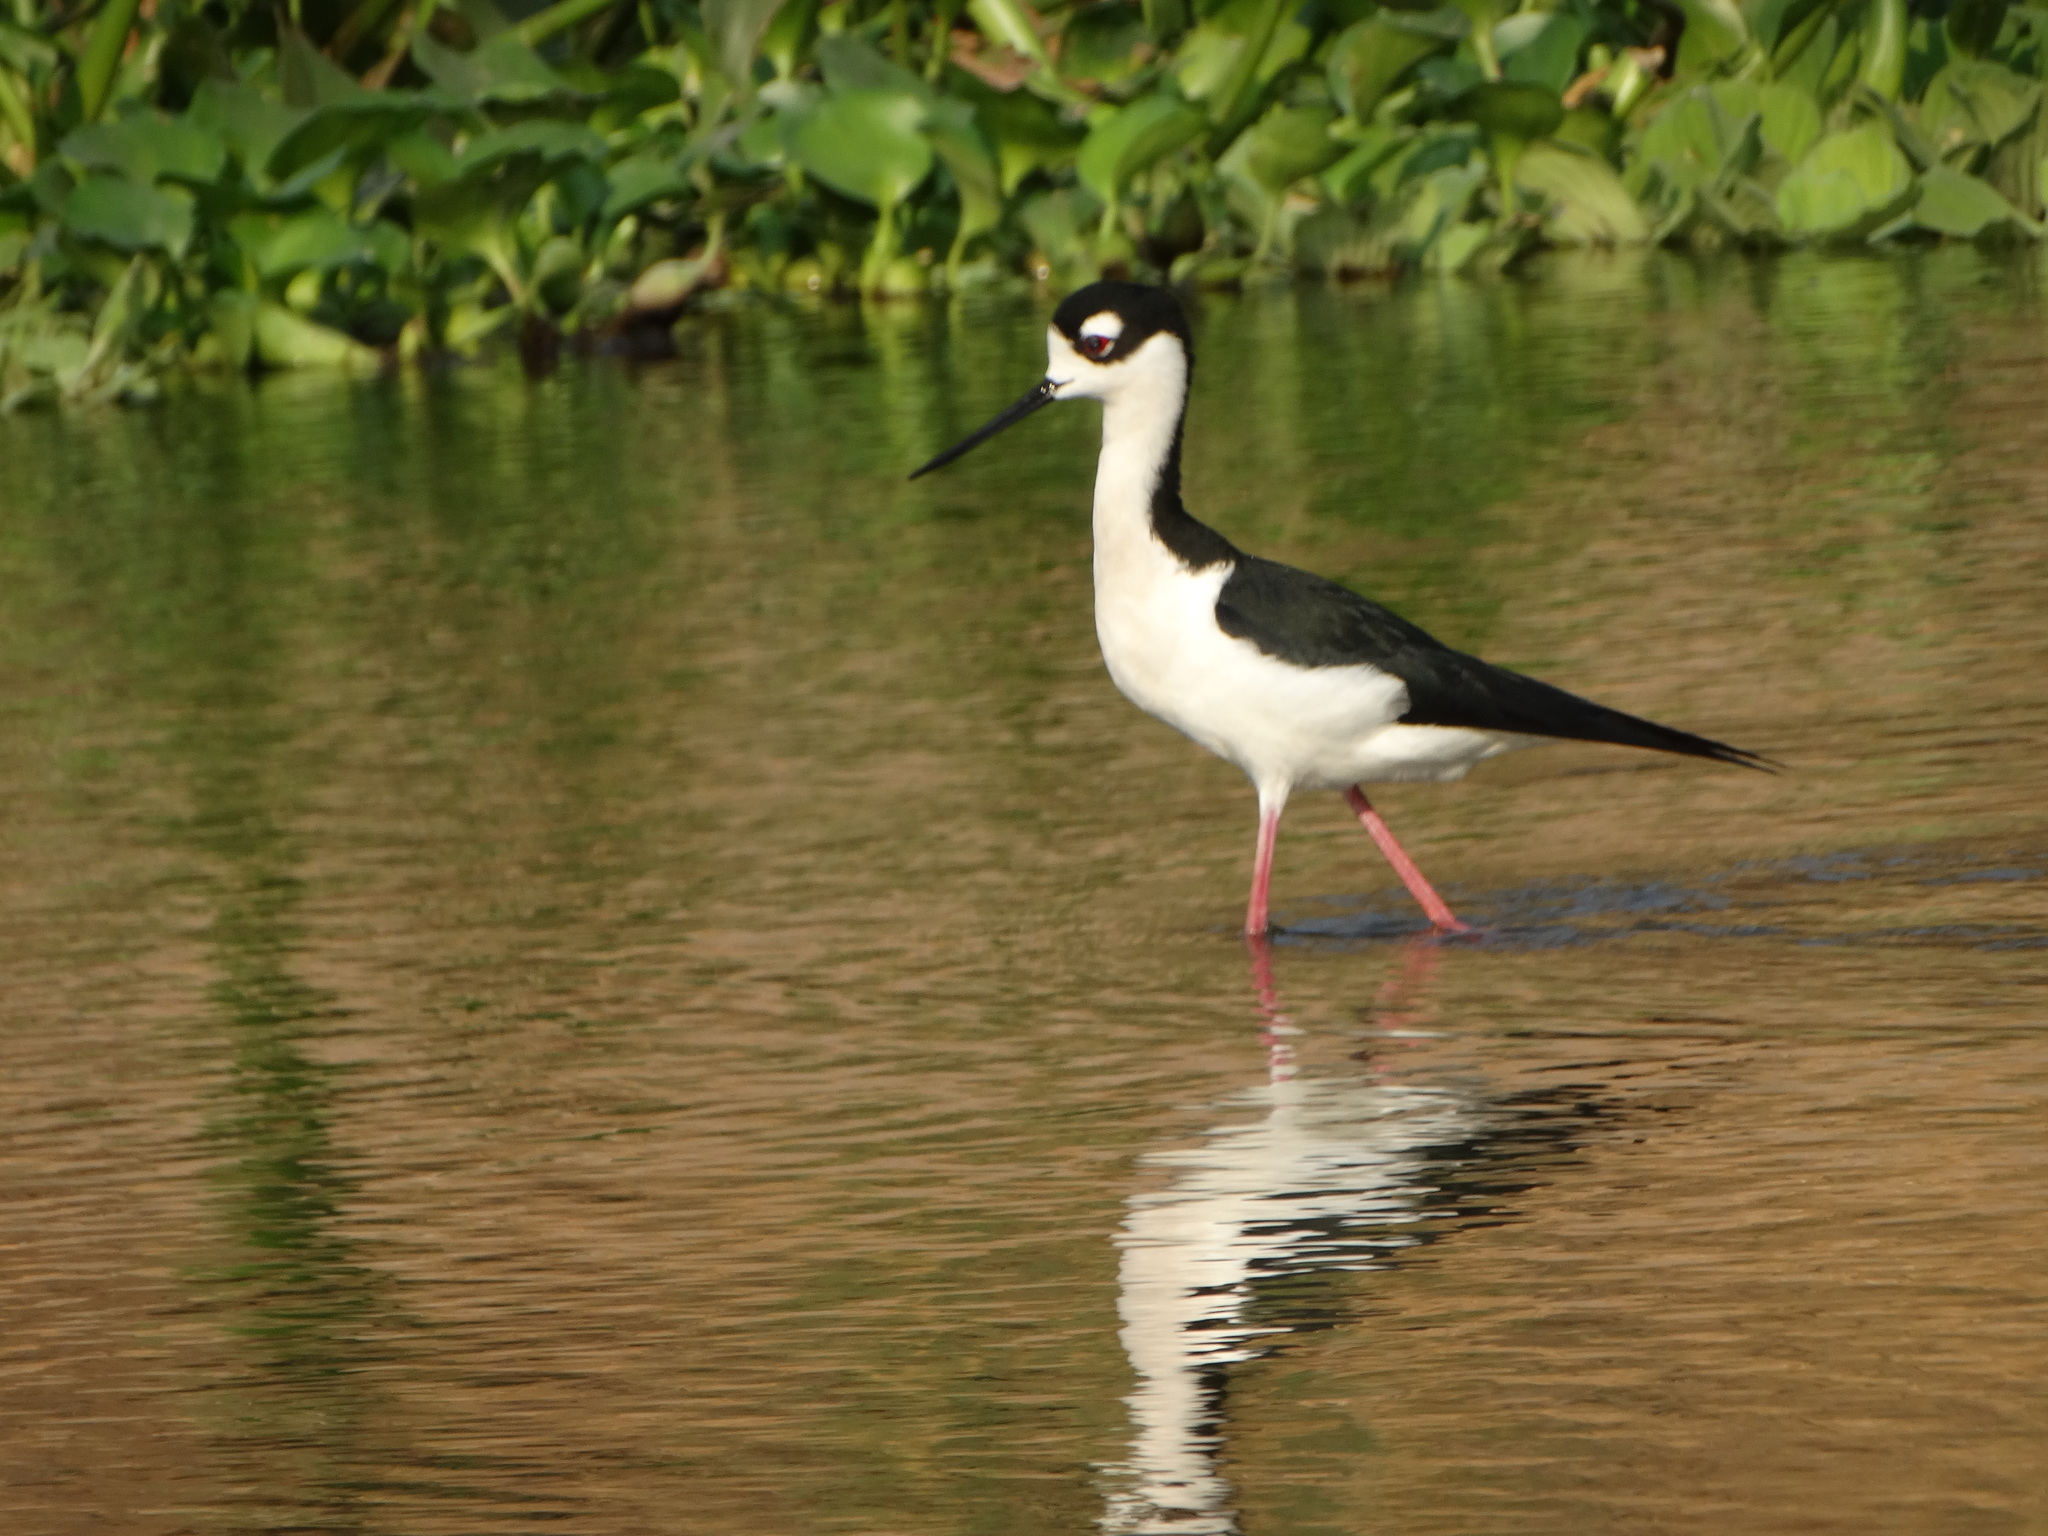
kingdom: Animalia
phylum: Chordata
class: Aves
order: Charadriiformes
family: Recurvirostridae
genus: Himantopus
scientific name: Himantopus mexicanus
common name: Black-necked stilt
